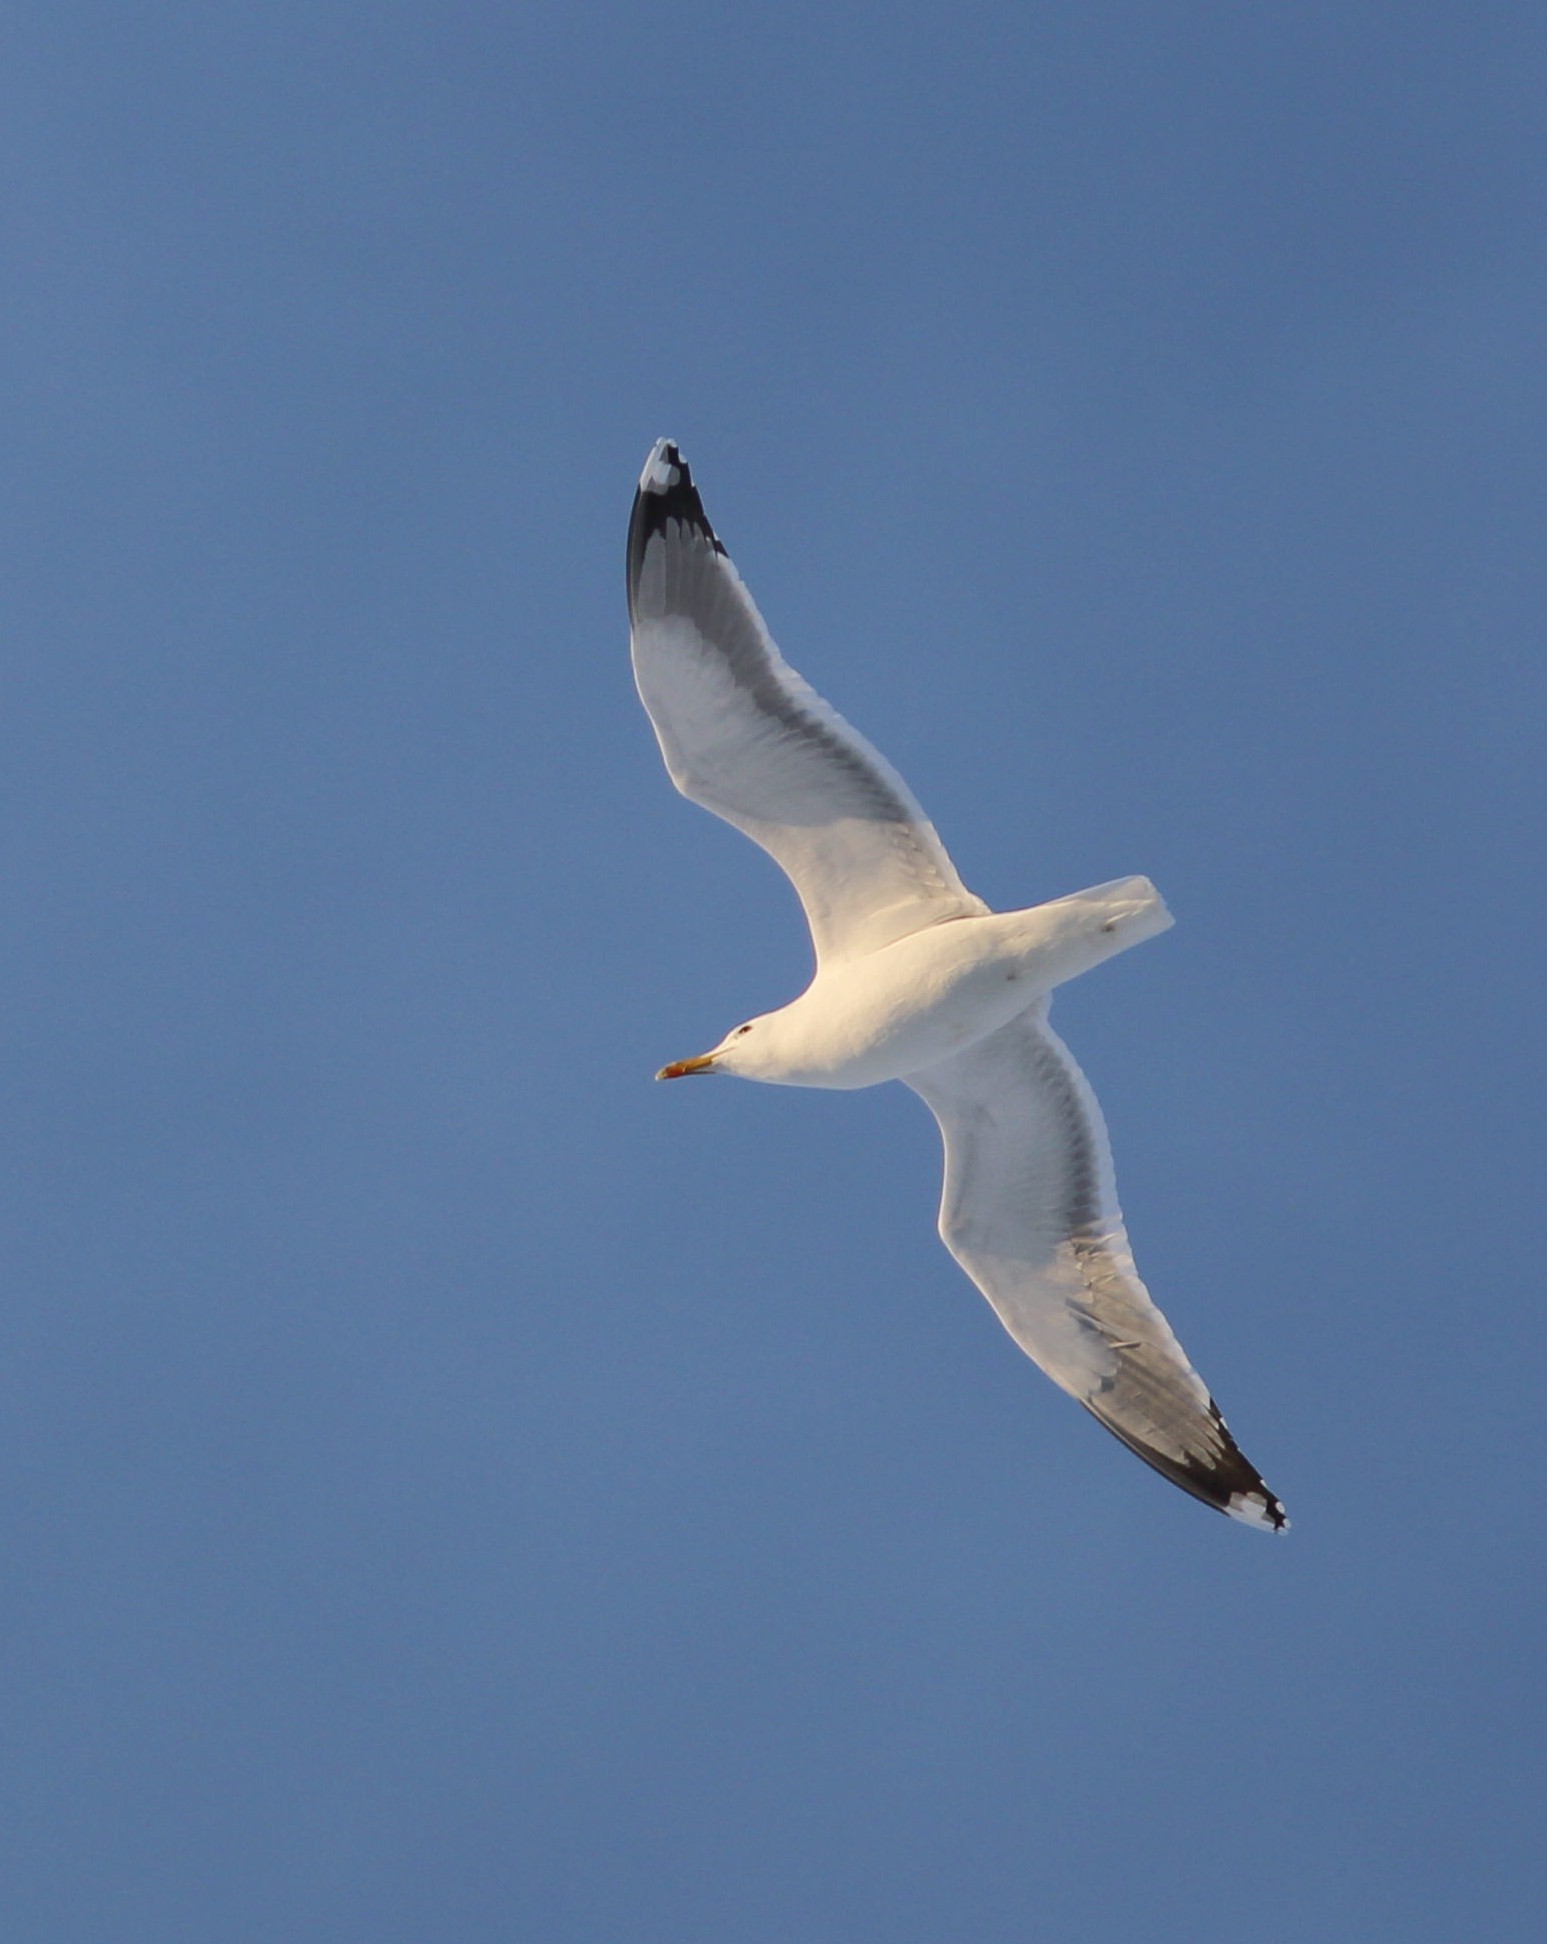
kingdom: Animalia
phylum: Chordata
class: Aves
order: Charadriiformes
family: Laridae
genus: Larus
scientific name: Larus cachinnans
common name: Caspian gull
